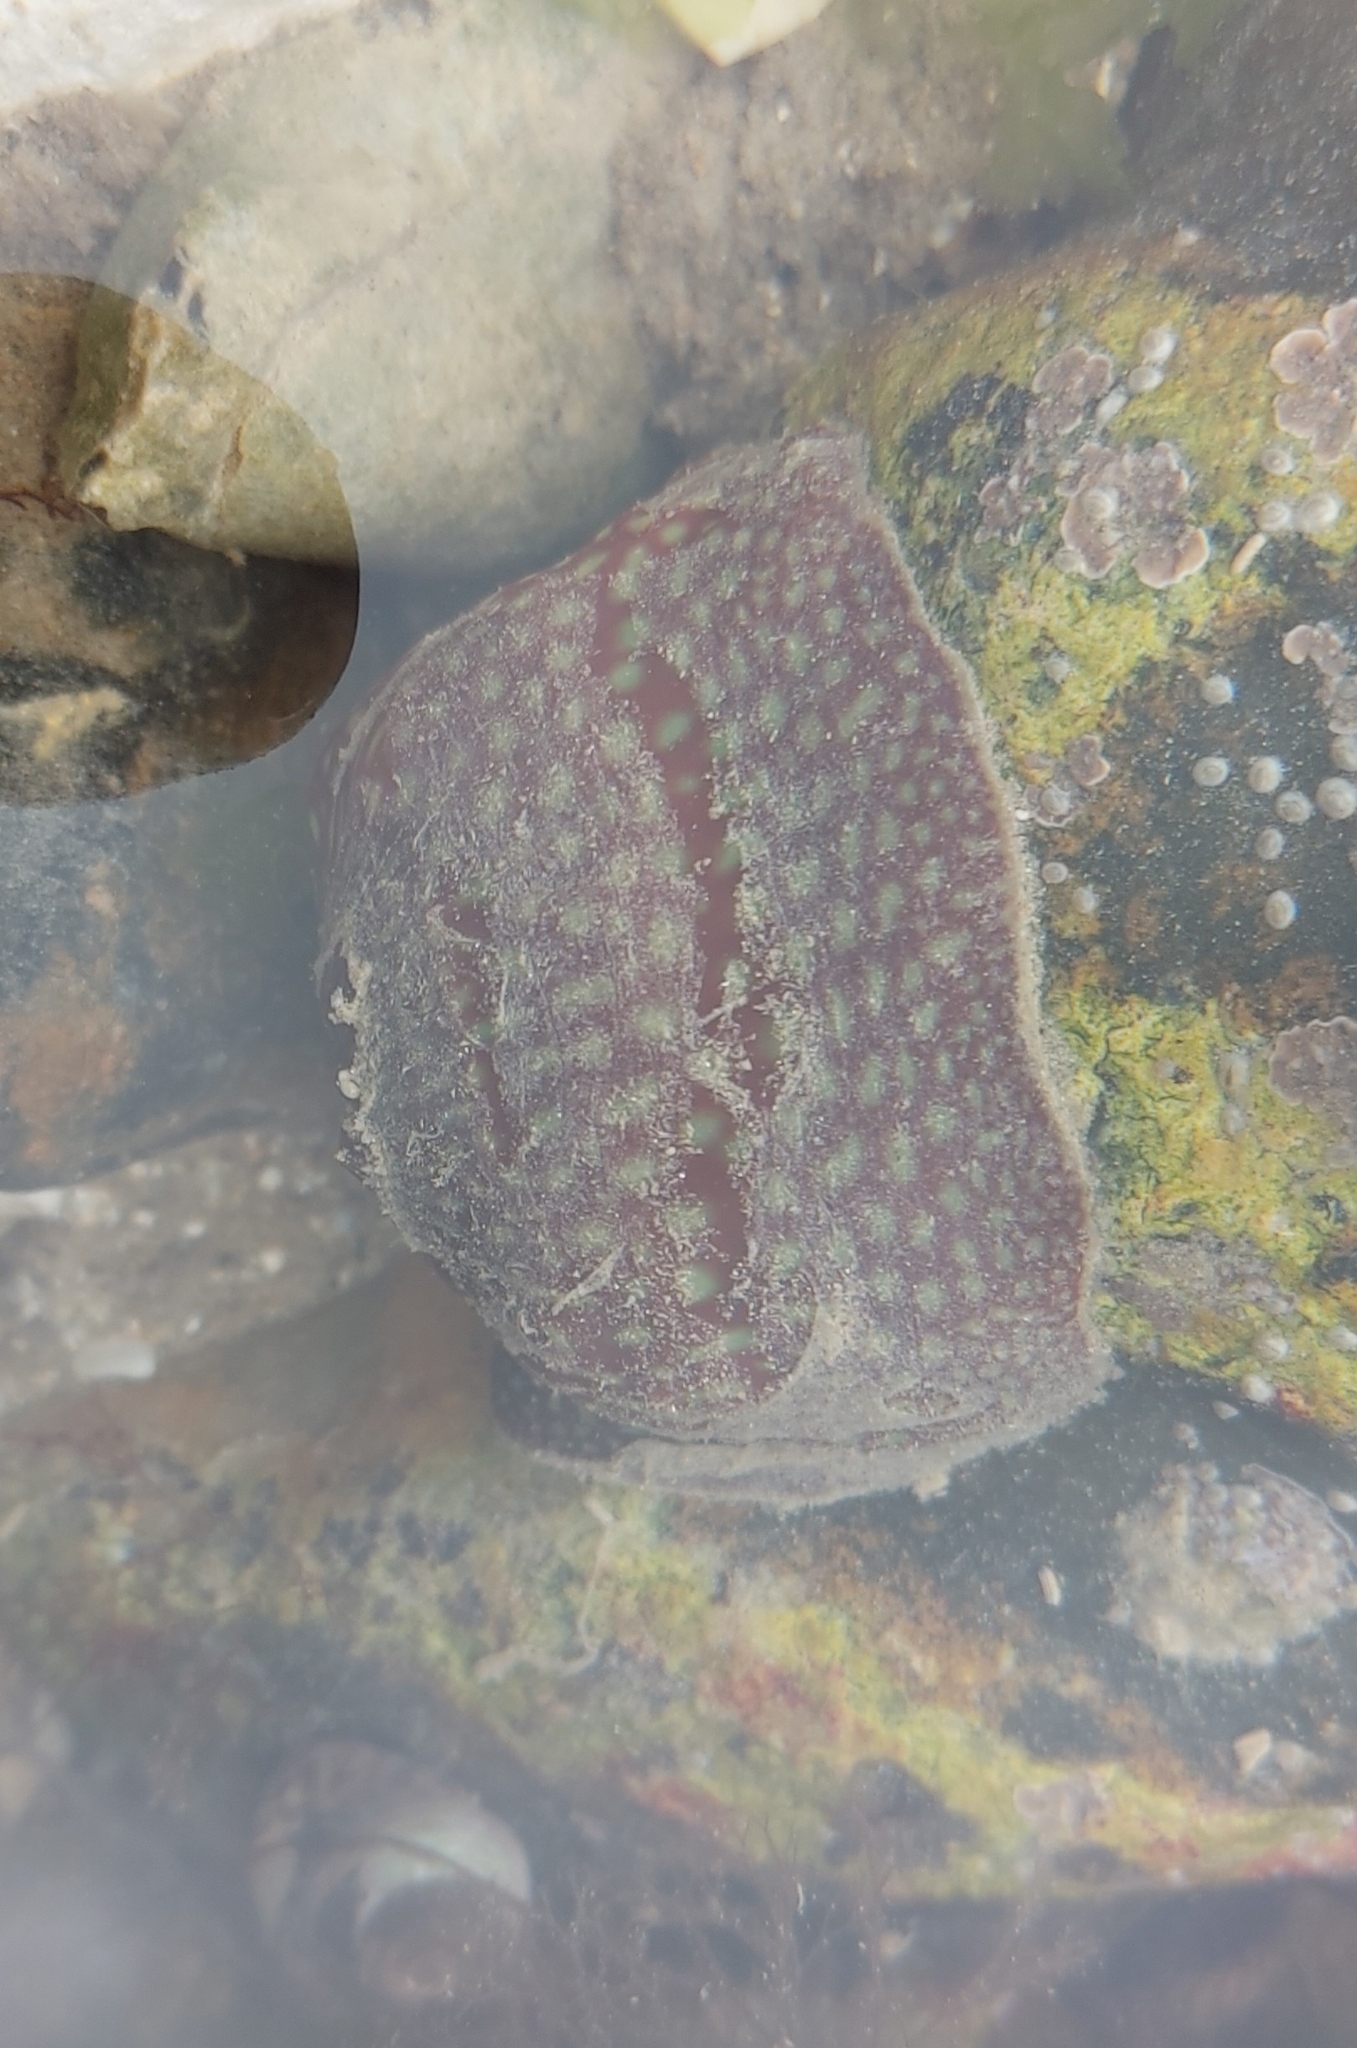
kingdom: Animalia
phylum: Cnidaria
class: Anthozoa
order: Actiniaria
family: Actiniidae
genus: Actinia
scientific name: Actinia fragacea
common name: Strawberry anemone
